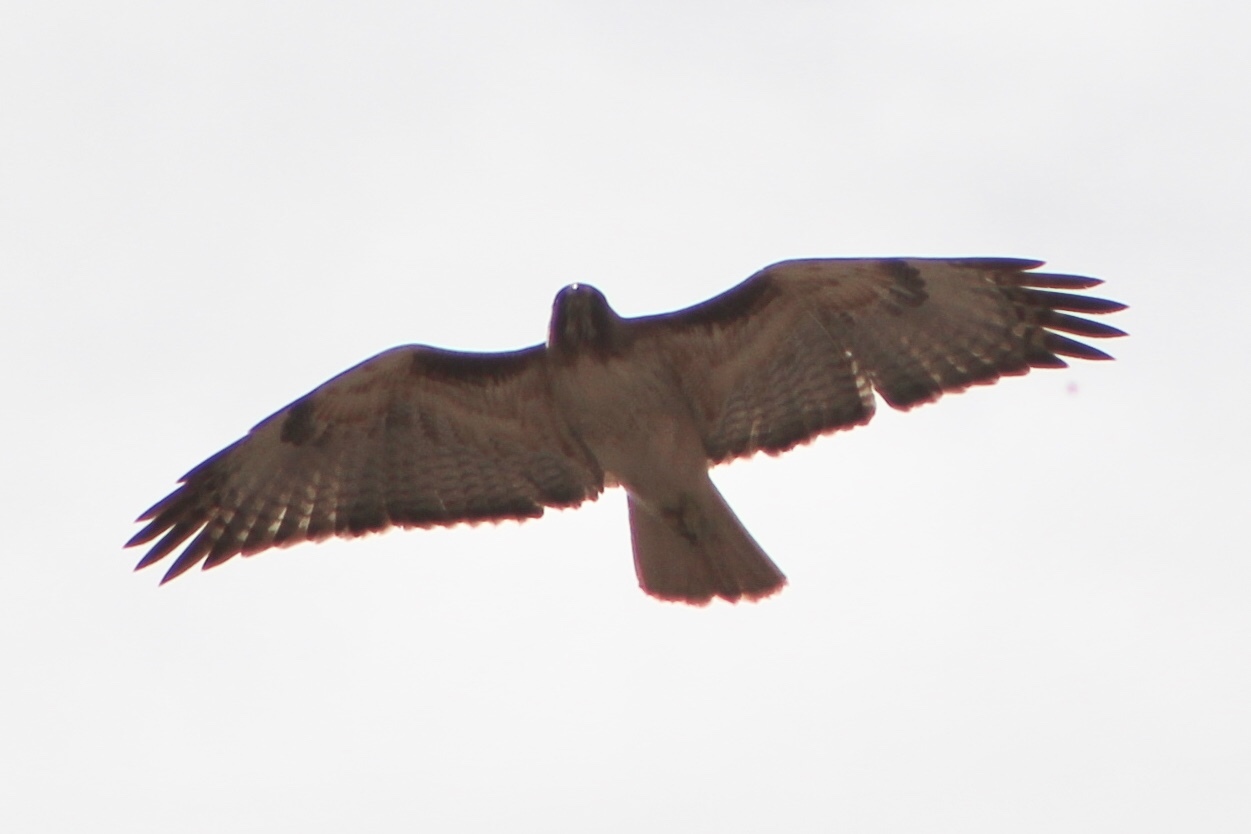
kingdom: Animalia
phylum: Chordata
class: Aves
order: Accipitriformes
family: Accipitridae
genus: Buteo
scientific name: Buteo jamaicensis
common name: Red-tailed hawk
